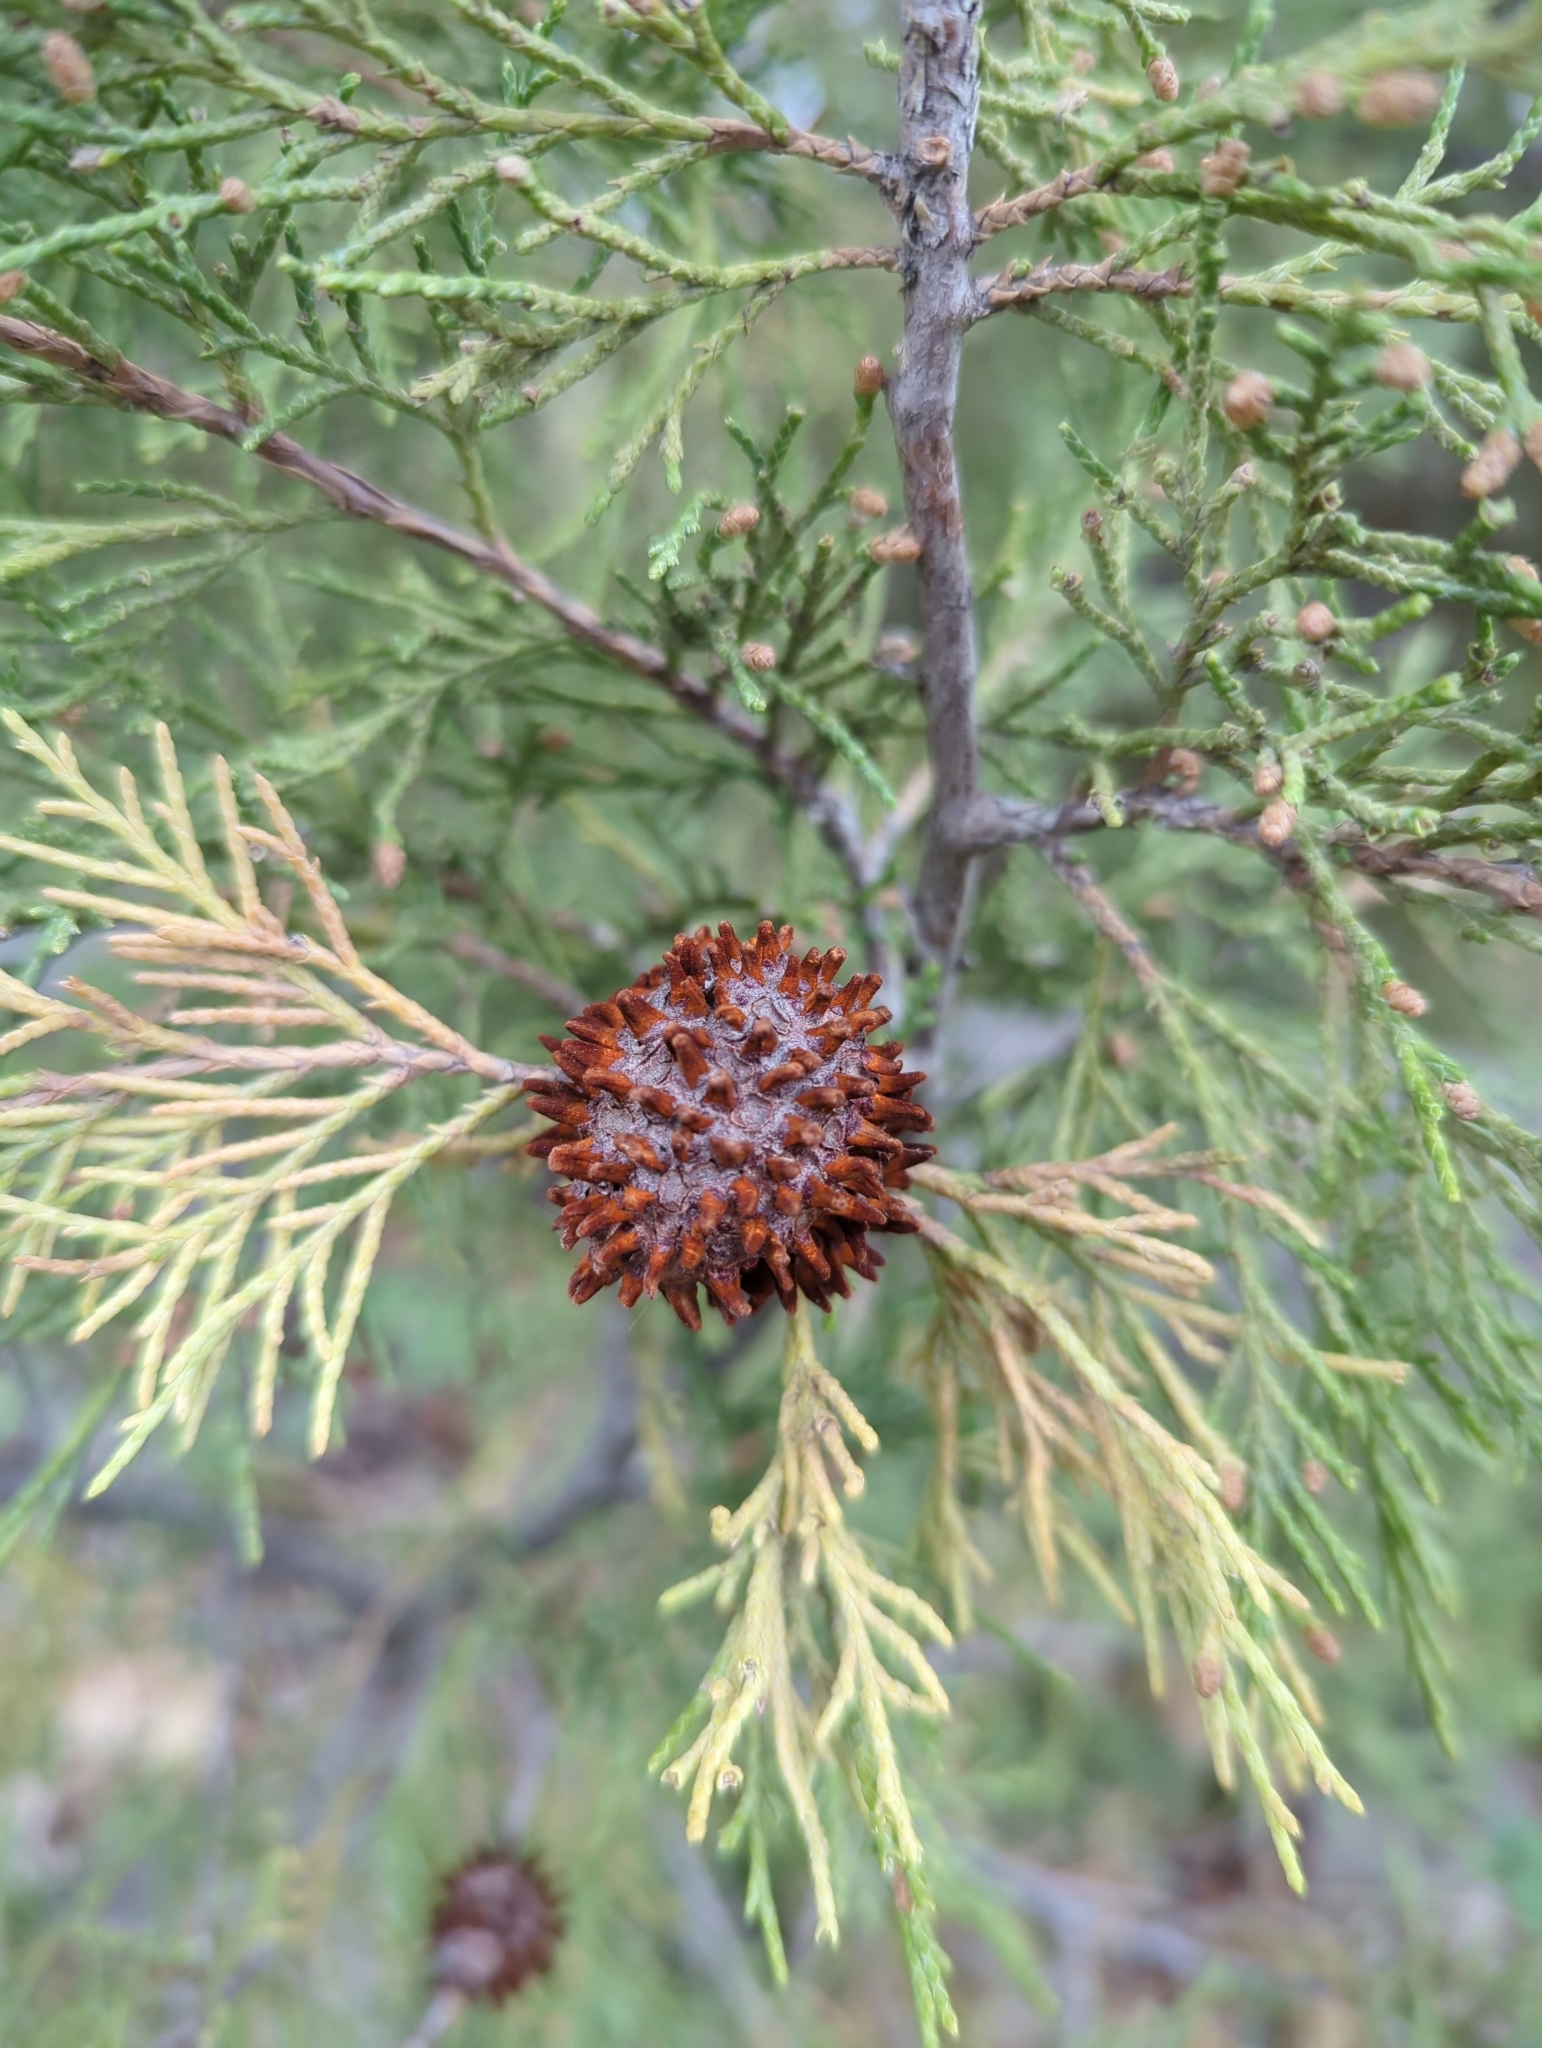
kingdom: Fungi
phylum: Basidiomycota
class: Pucciniomycetes
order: Pucciniales
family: Gymnosporangiaceae
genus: Gymnosporangium
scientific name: Gymnosporangium juniperi-virginianae
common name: Juniper-apple rust
